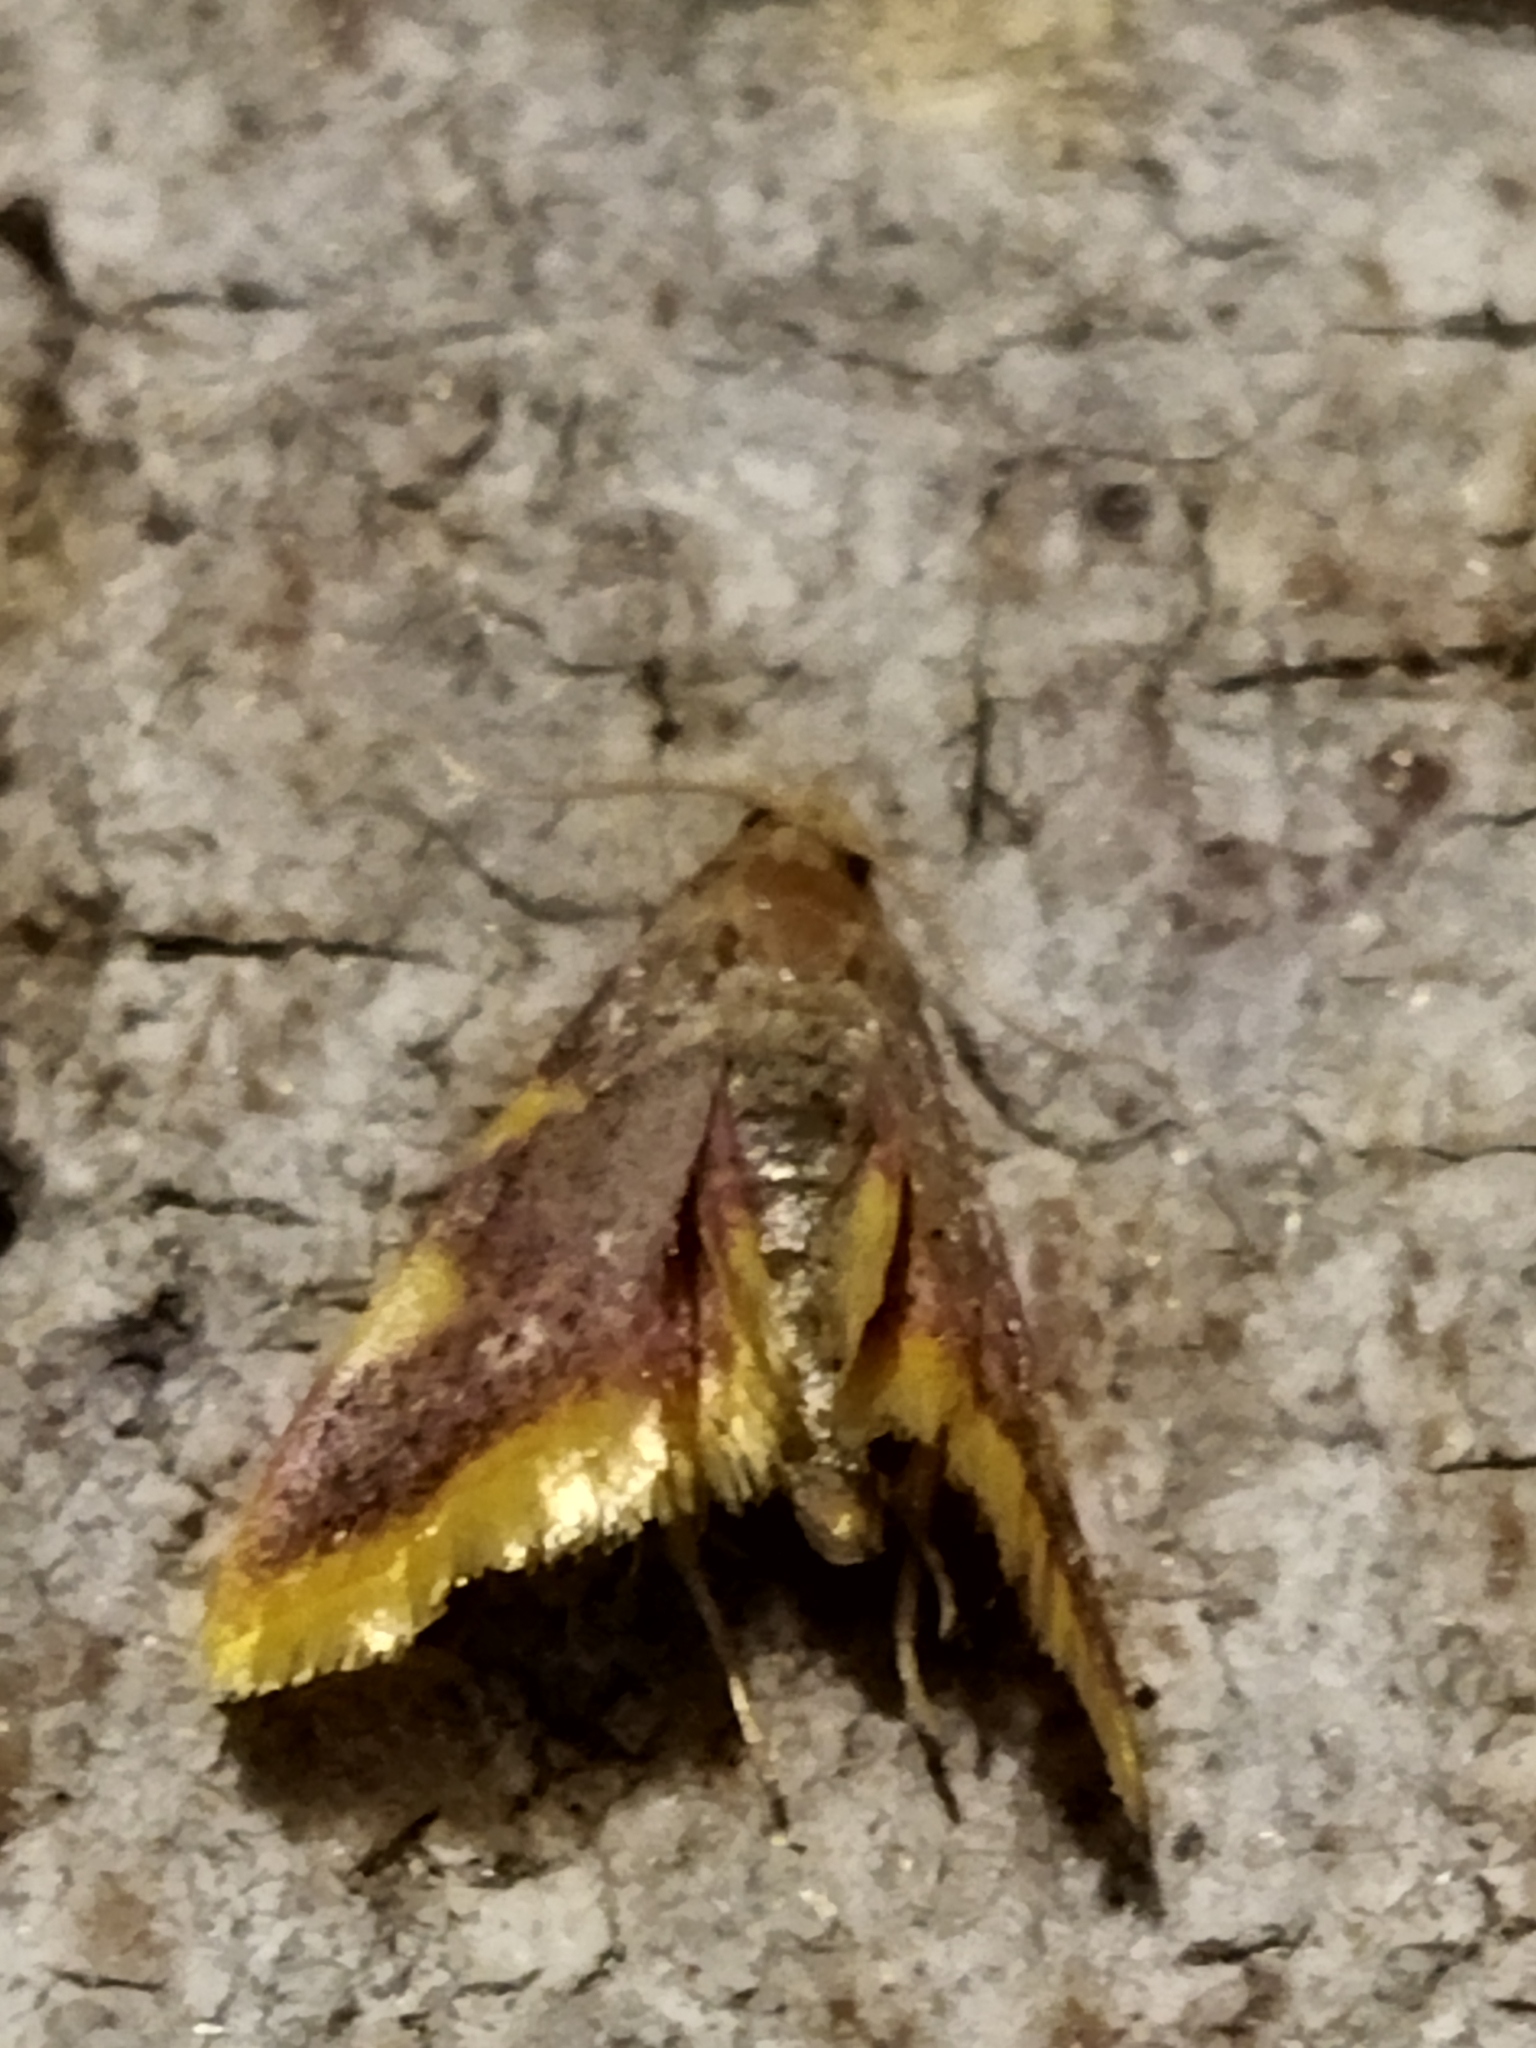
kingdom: Animalia
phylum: Arthropoda
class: Insecta
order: Lepidoptera
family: Pyralidae
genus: Hypsopygia
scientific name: Hypsopygia costalis
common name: Gold triangle
